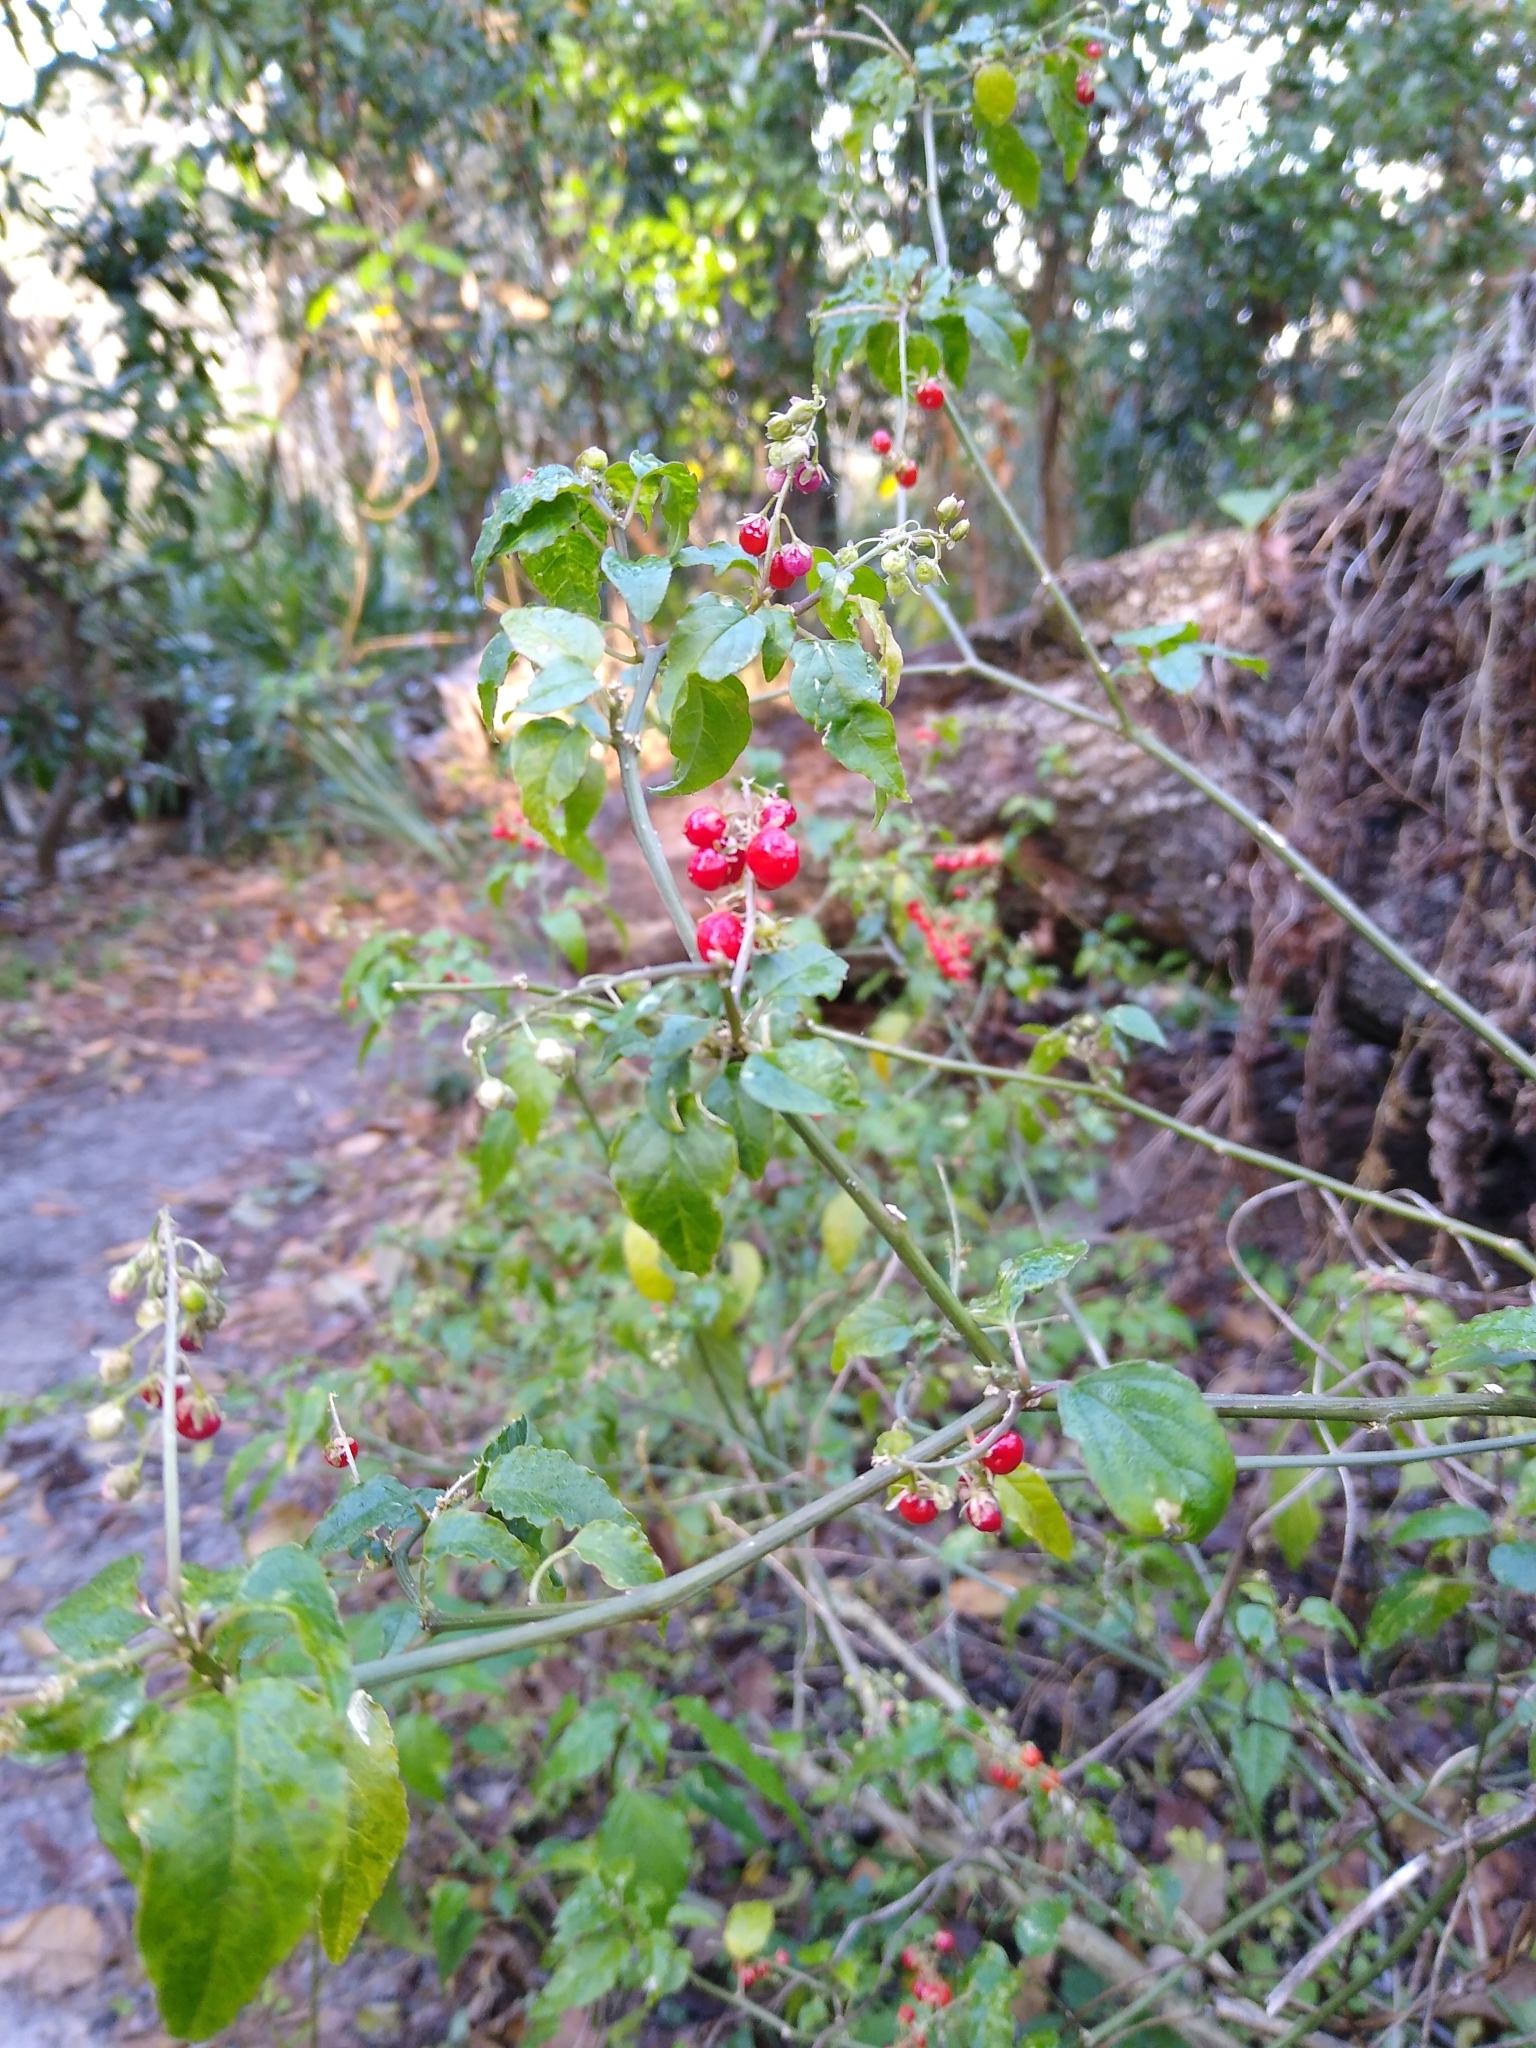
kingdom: Plantae
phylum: Tracheophyta
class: Magnoliopsida
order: Caryophyllales
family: Phytolaccaceae
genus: Rivina
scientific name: Rivina humilis
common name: Rougeplant
